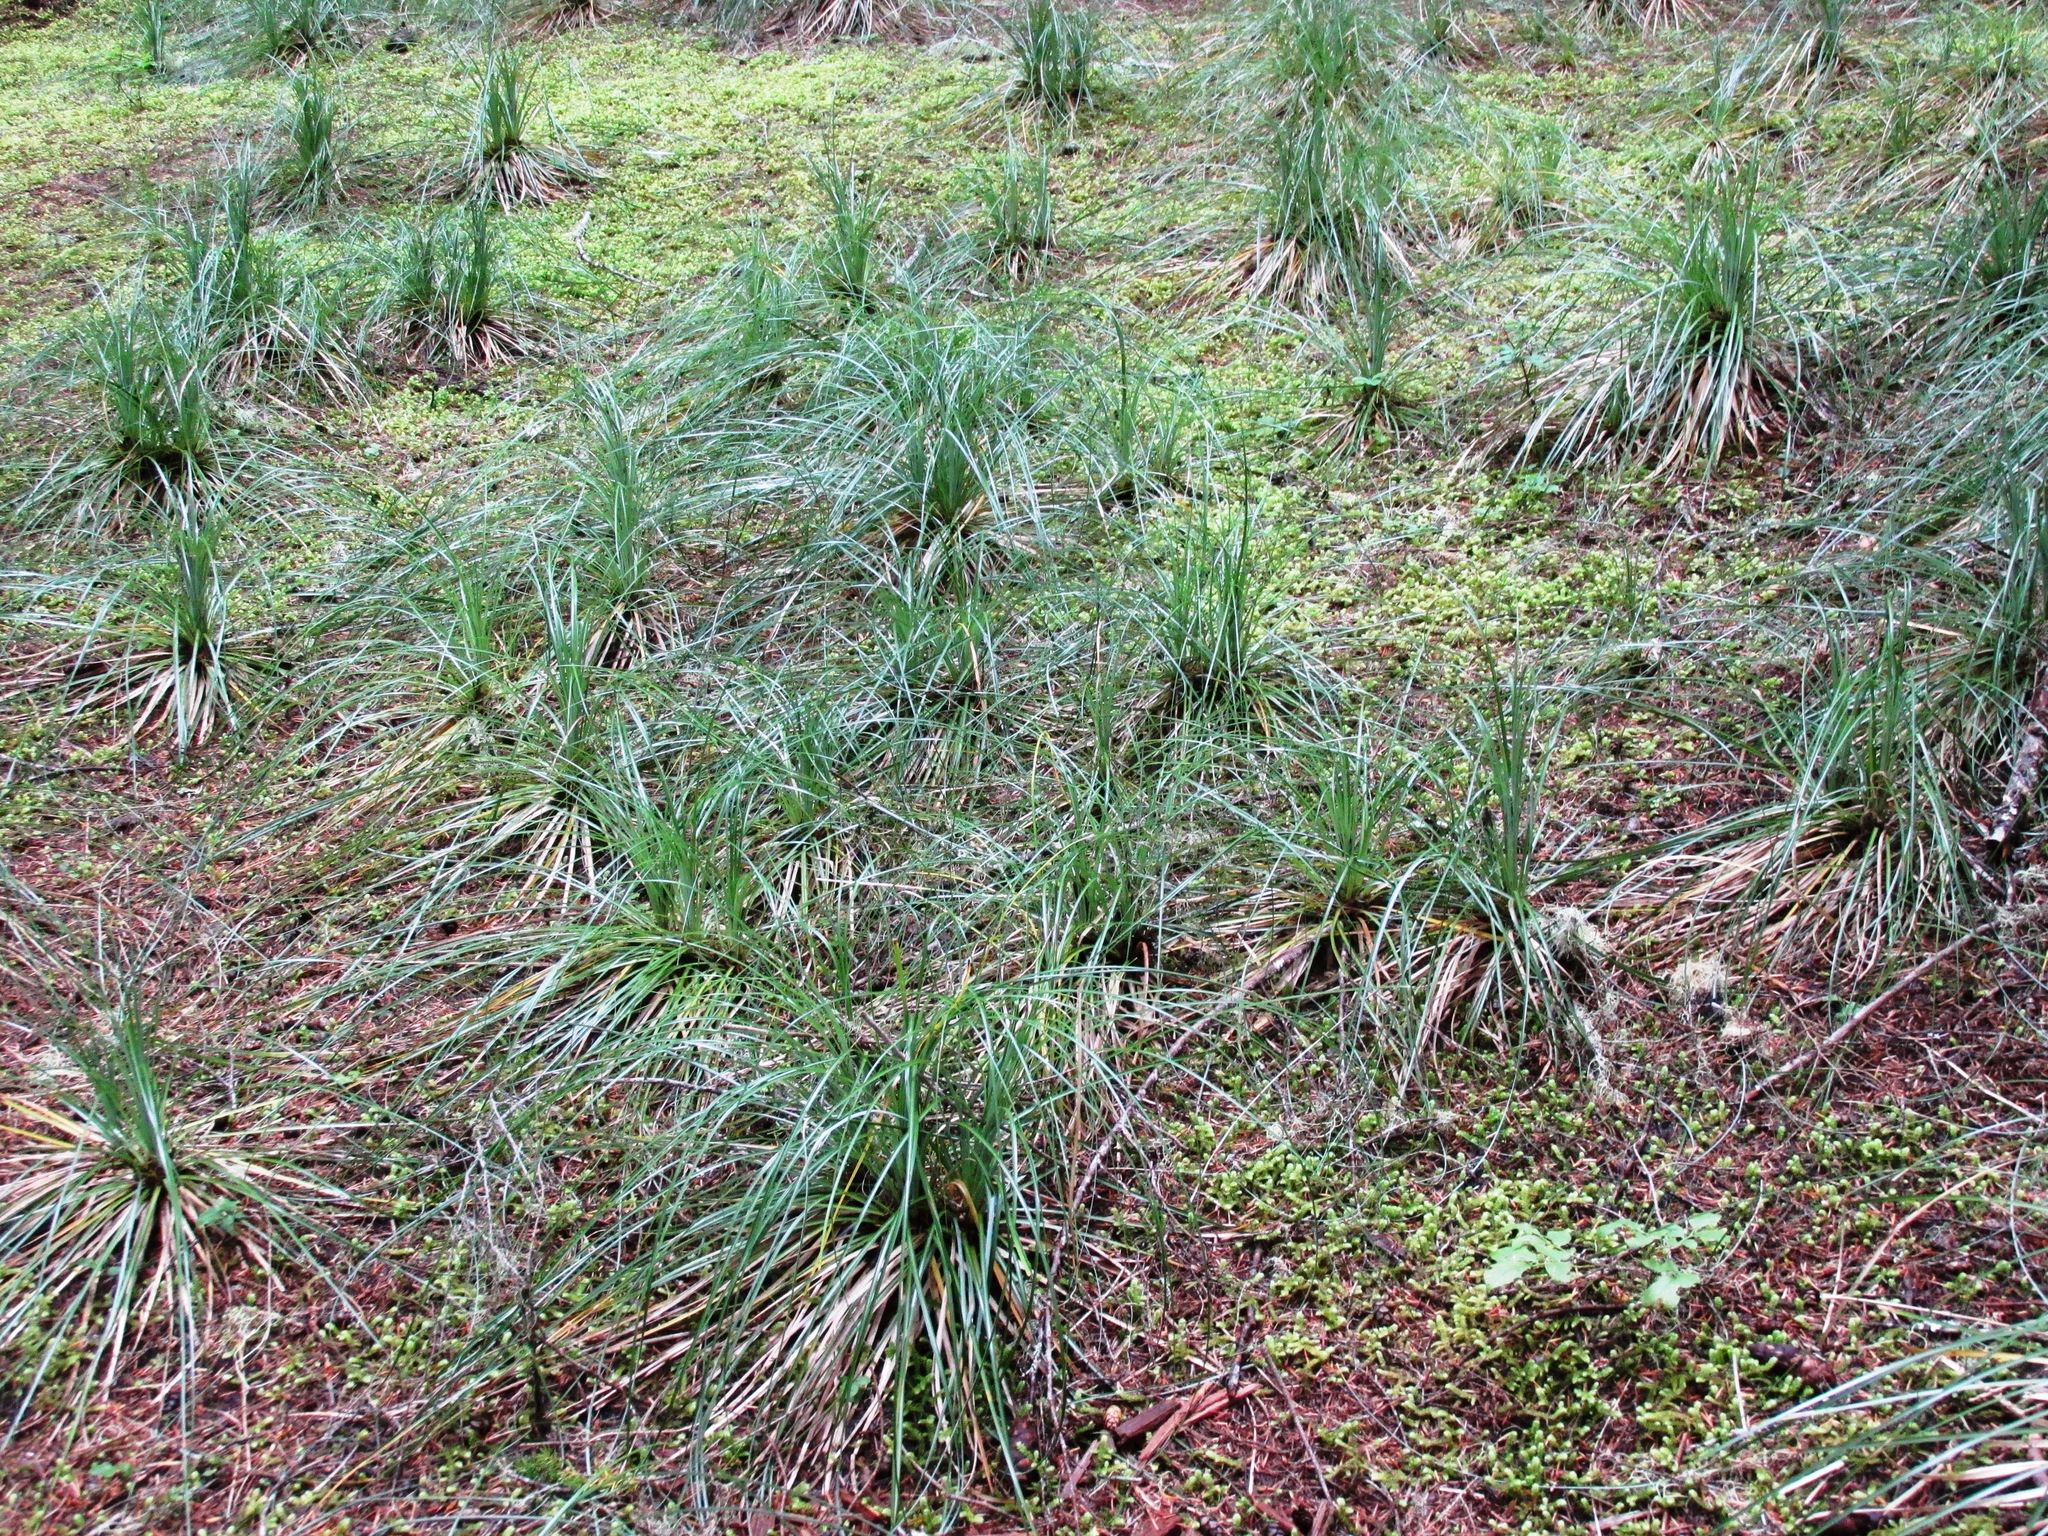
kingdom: Plantae
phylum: Tracheophyta
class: Liliopsida
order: Liliales
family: Melanthiaceae
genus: Xerophyllum
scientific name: Xerophyllum tenax
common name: Bear-grass
